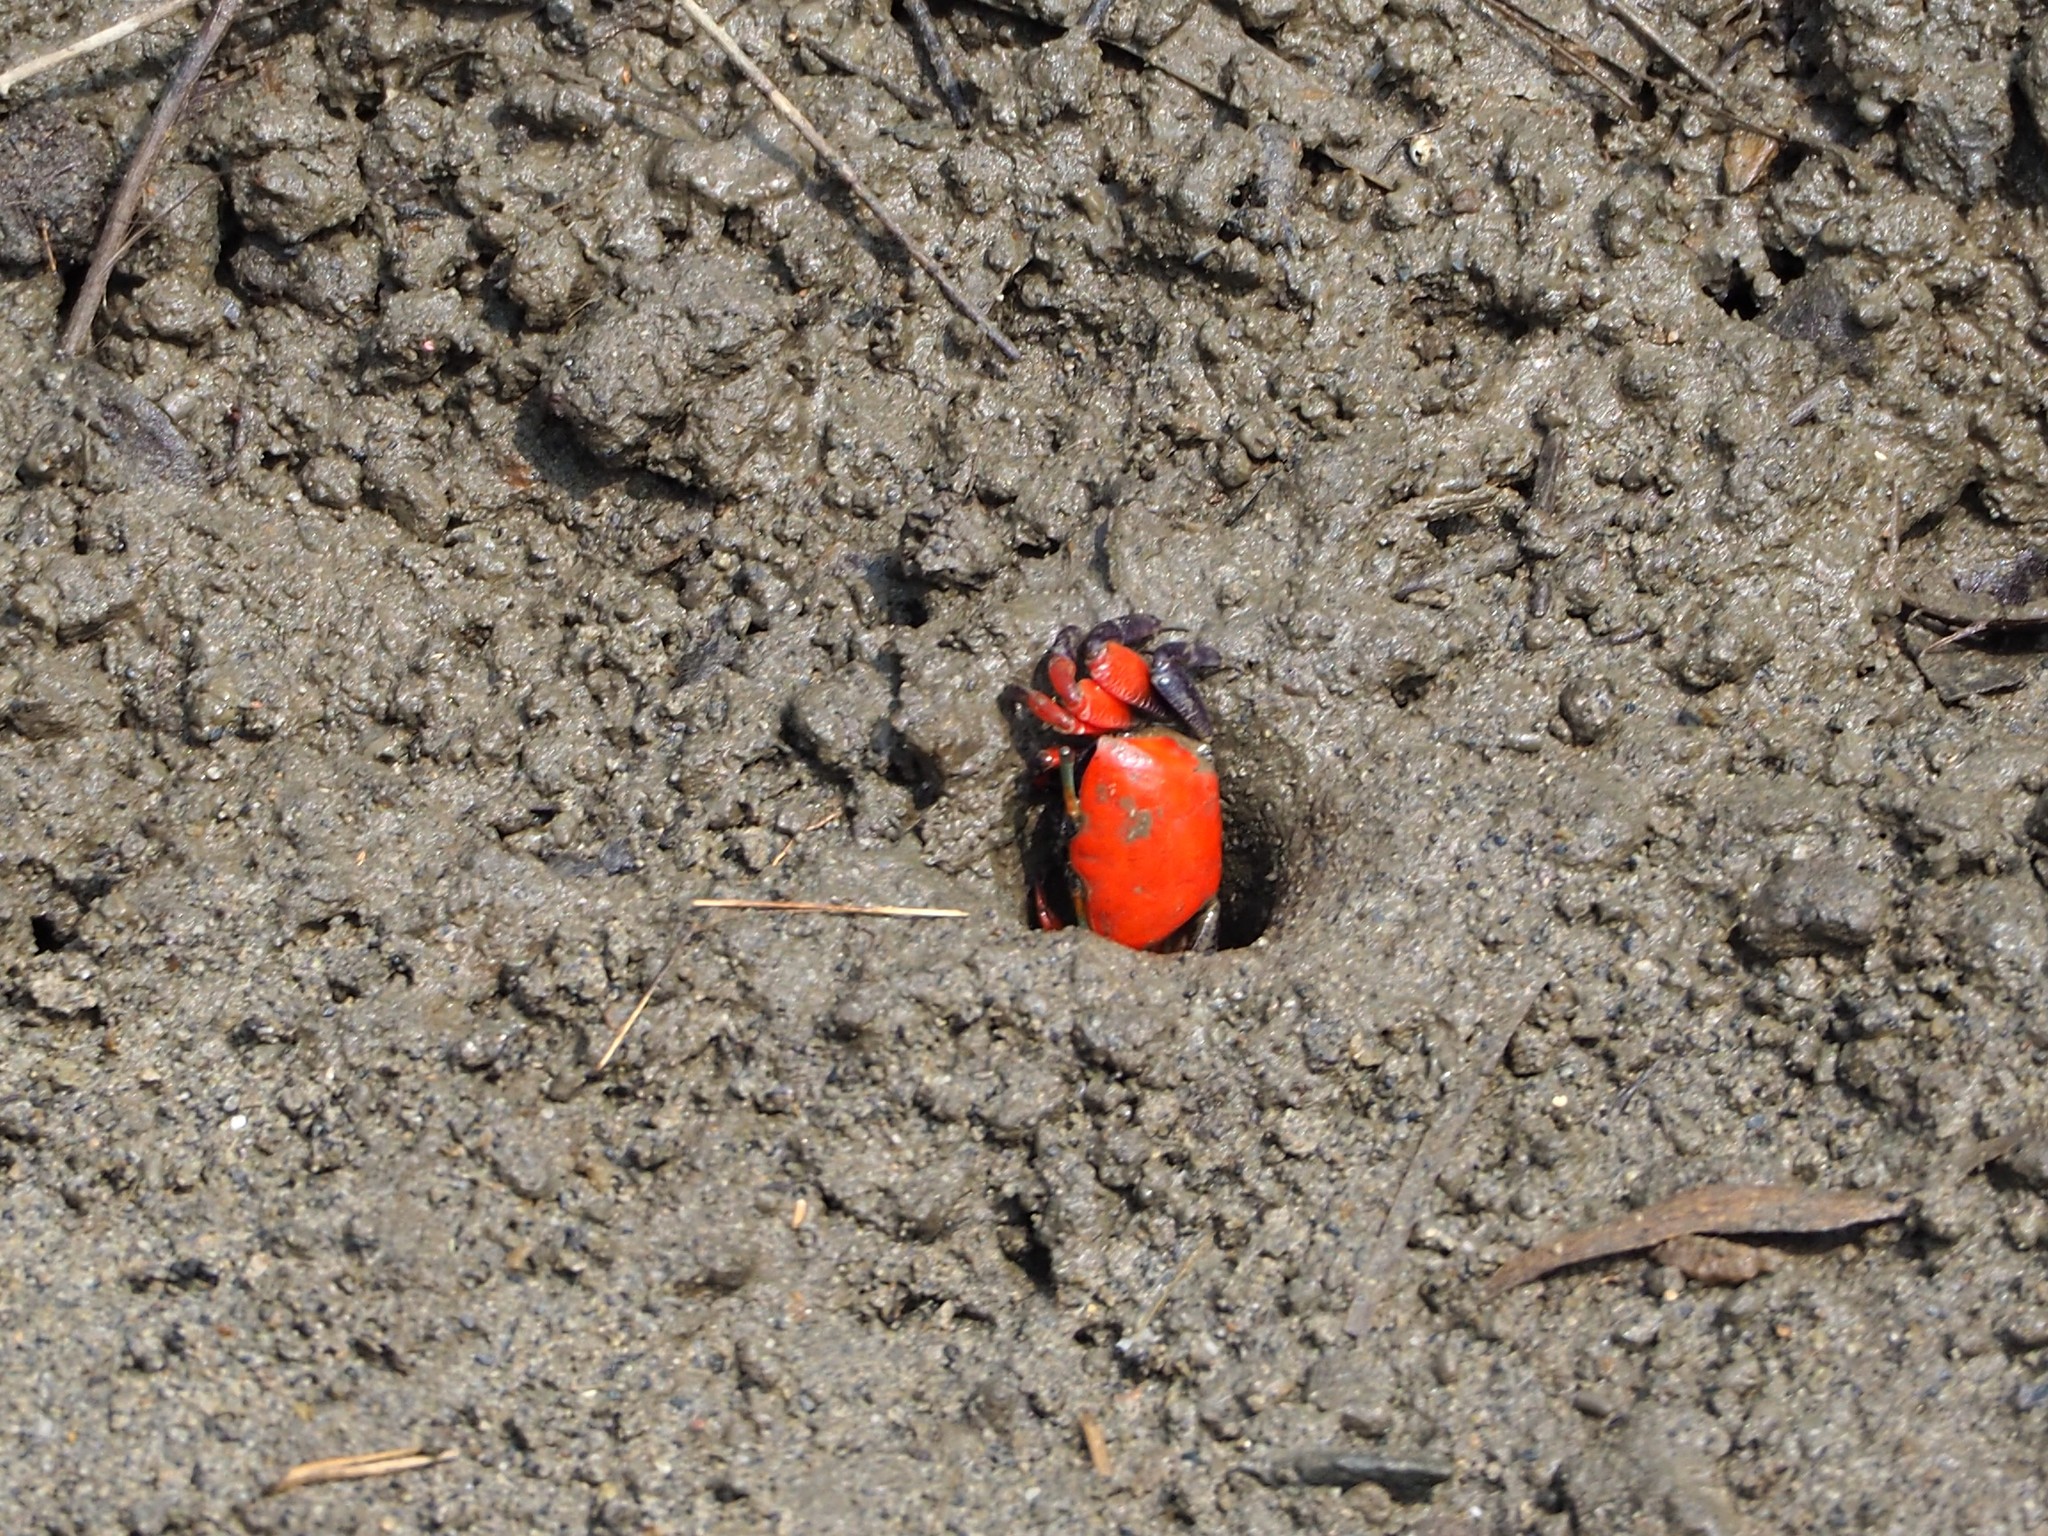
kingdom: Animalia
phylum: Arthropoda
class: Malacostraca
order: Decapoda
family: Ocypodidae
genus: Paraleptuca
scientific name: Paraleptuca crassipes
